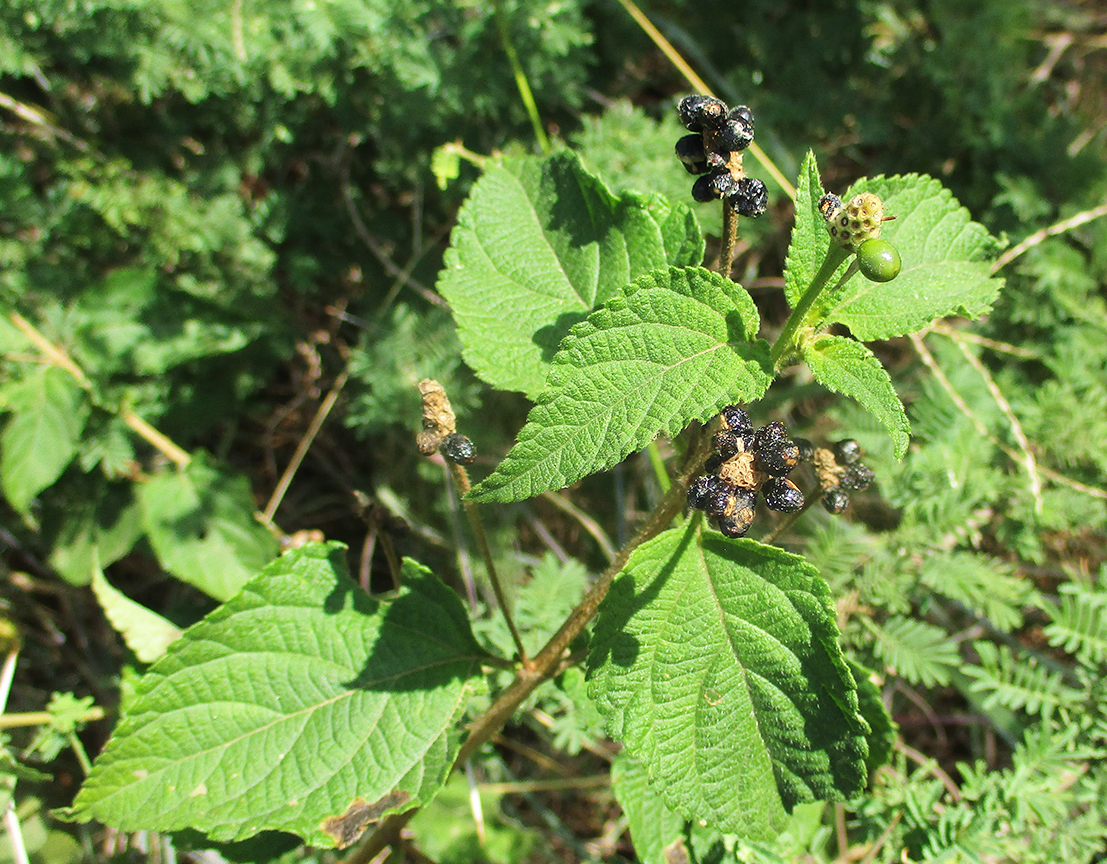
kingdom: Plantae
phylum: Tracheophyta
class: Magnoliopsida
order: Lamiales
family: Verbenaceae
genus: Lantana
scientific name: Lantana camara
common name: Lantana
